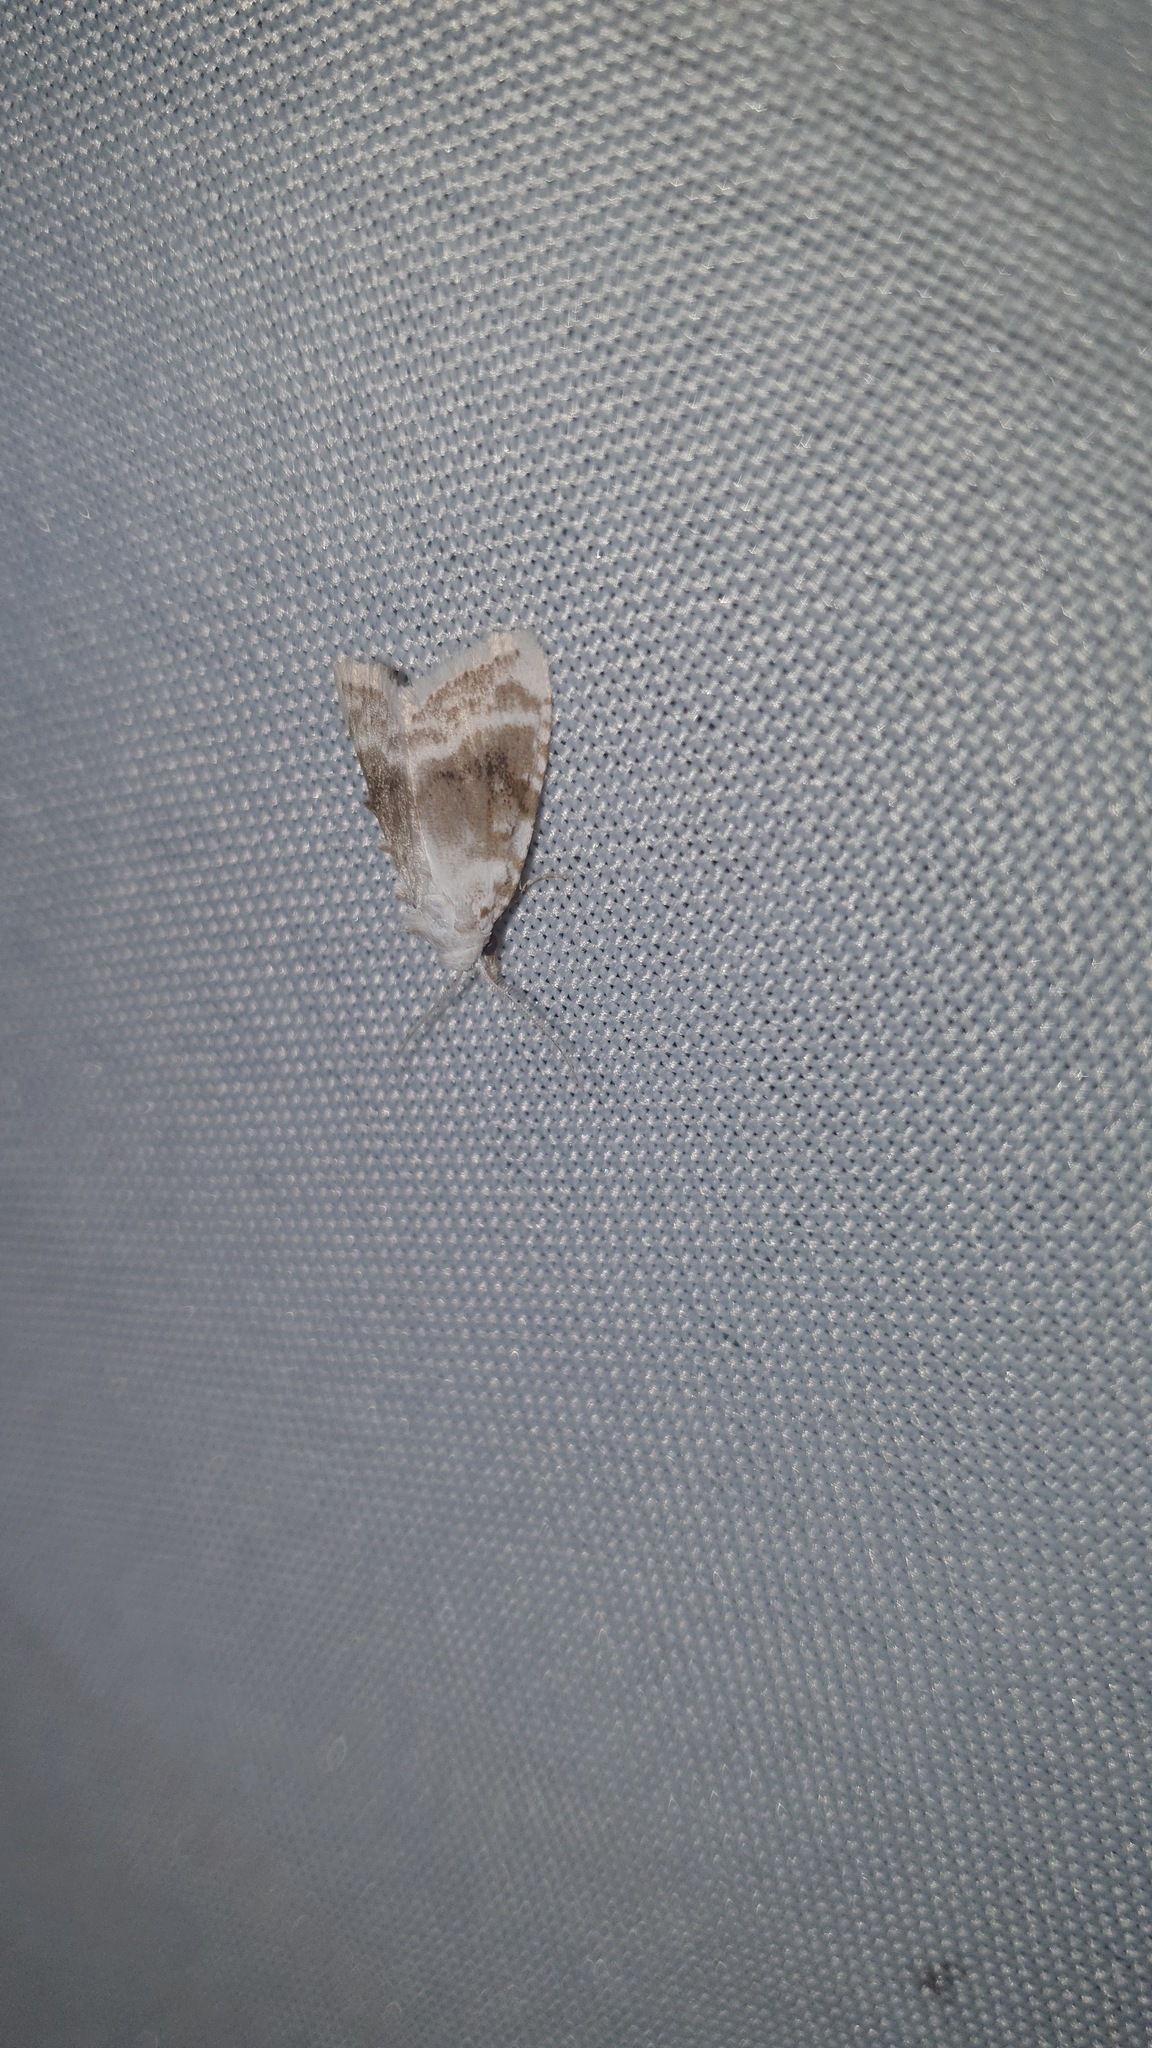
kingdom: Animalia
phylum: Arthropoda
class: Insecta
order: Lepidoptera
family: Nolidae
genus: Meganola
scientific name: Meganola albula
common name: Kent black arches
